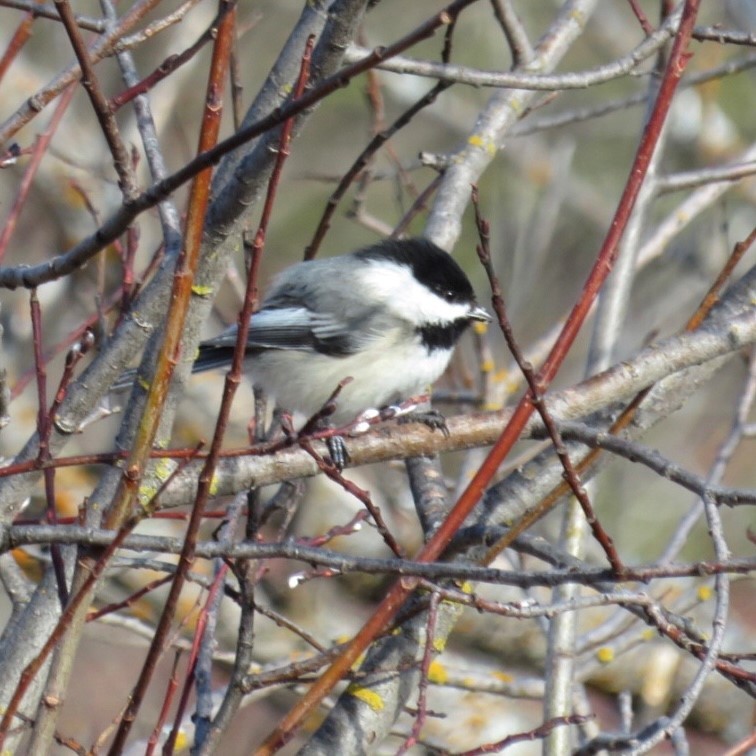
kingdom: Animalia
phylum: Chordata
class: Aves
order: Passeriformes
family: Paridae
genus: Poecile
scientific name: Poecile atricapillus
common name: Black-capped chickadee
